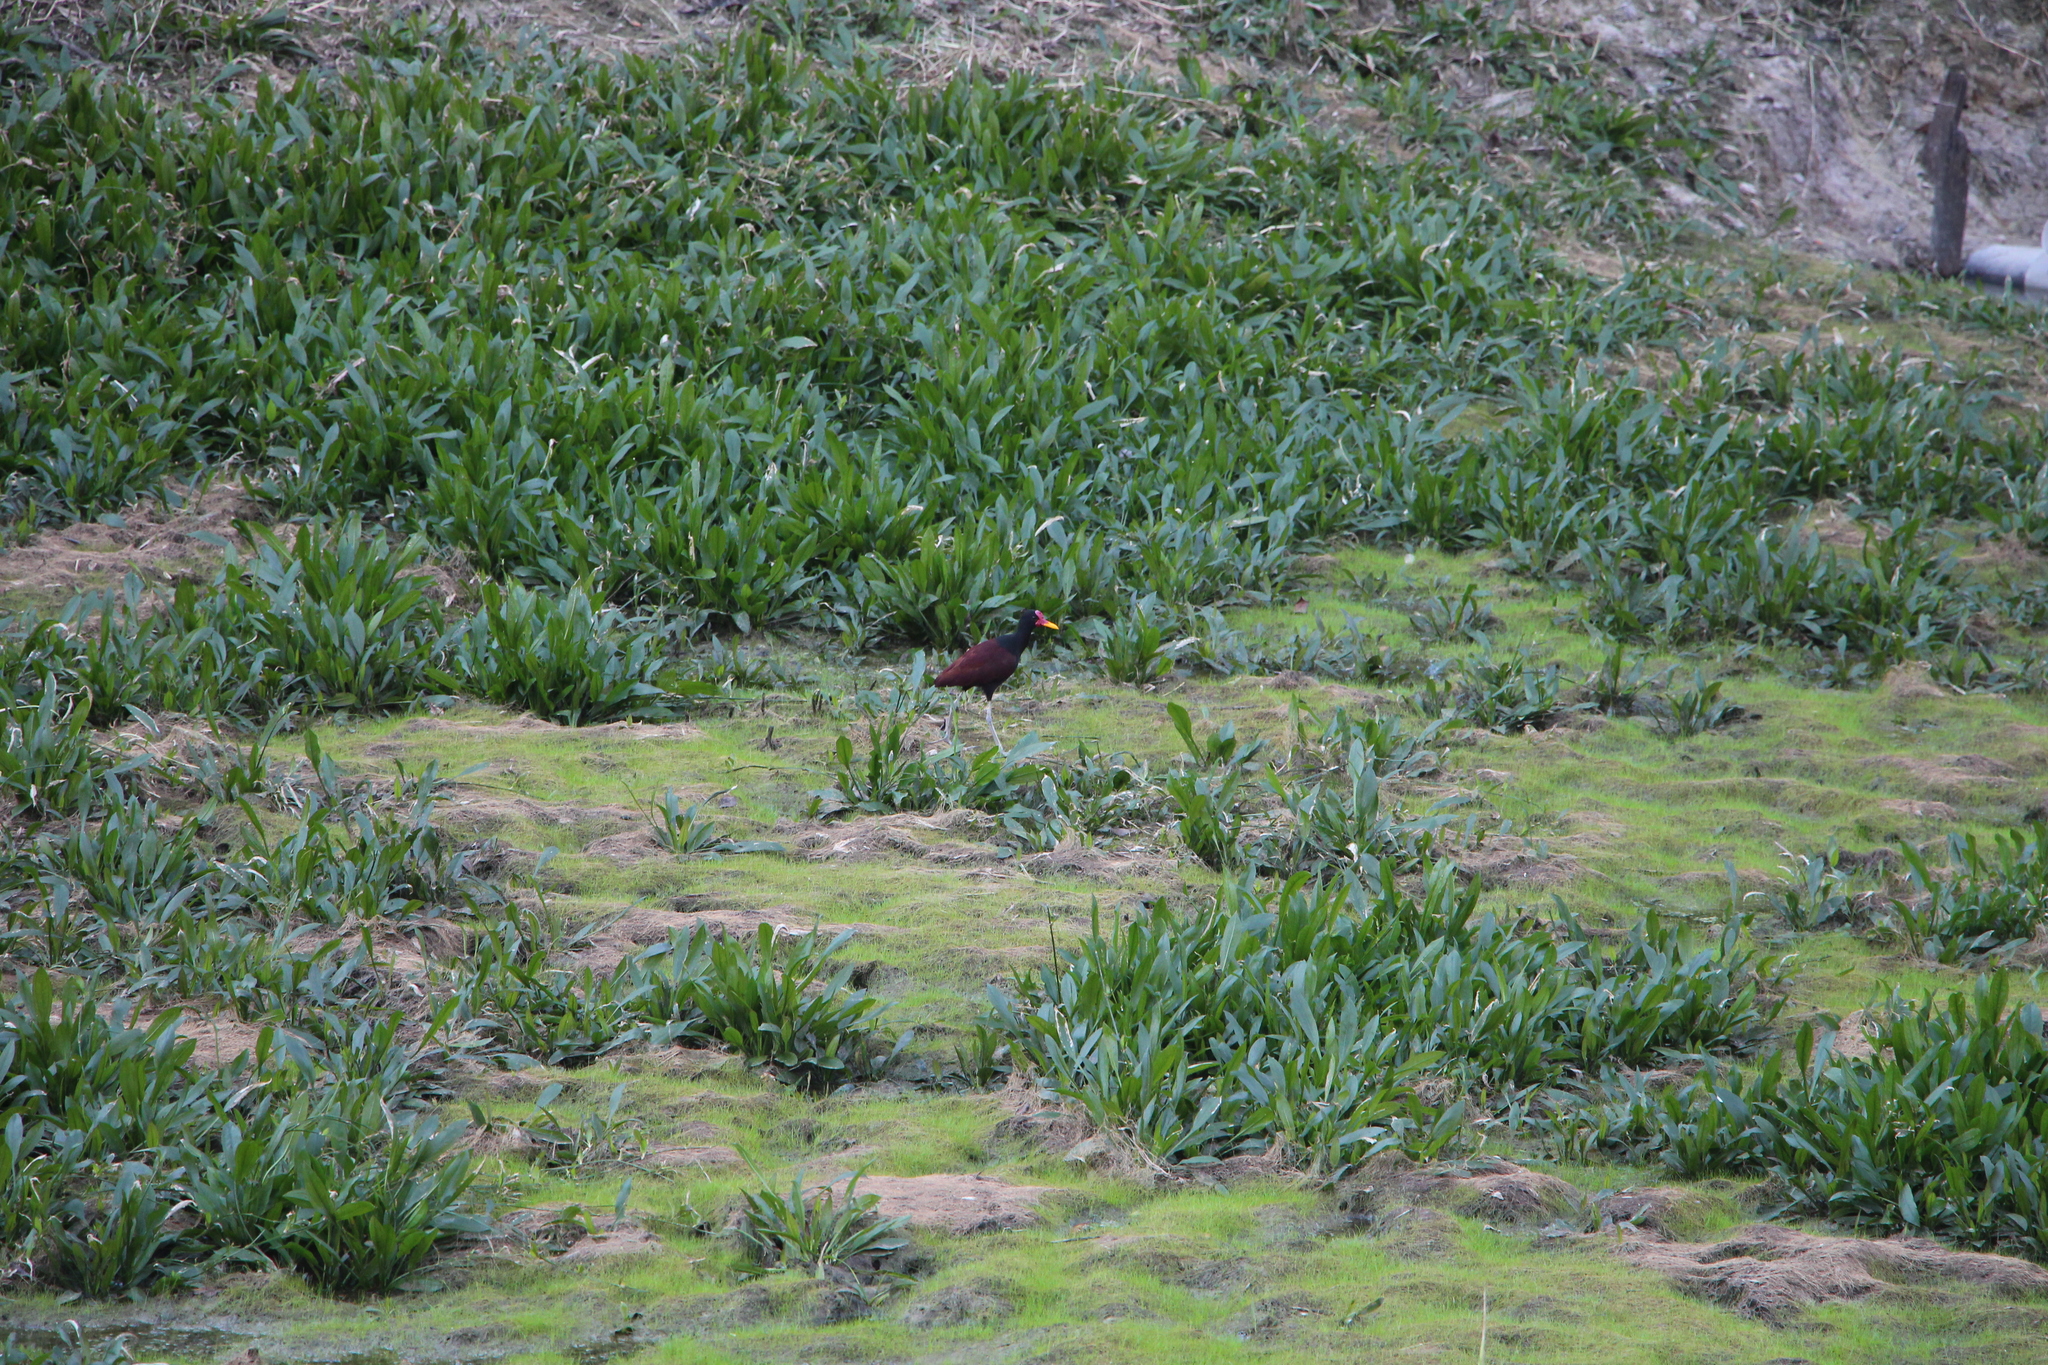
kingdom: Animalia
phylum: Chordata
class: Aves
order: Charadriiformes
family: Jacanidae
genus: Jacana
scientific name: Jacana jacana
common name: Wattled jacana
